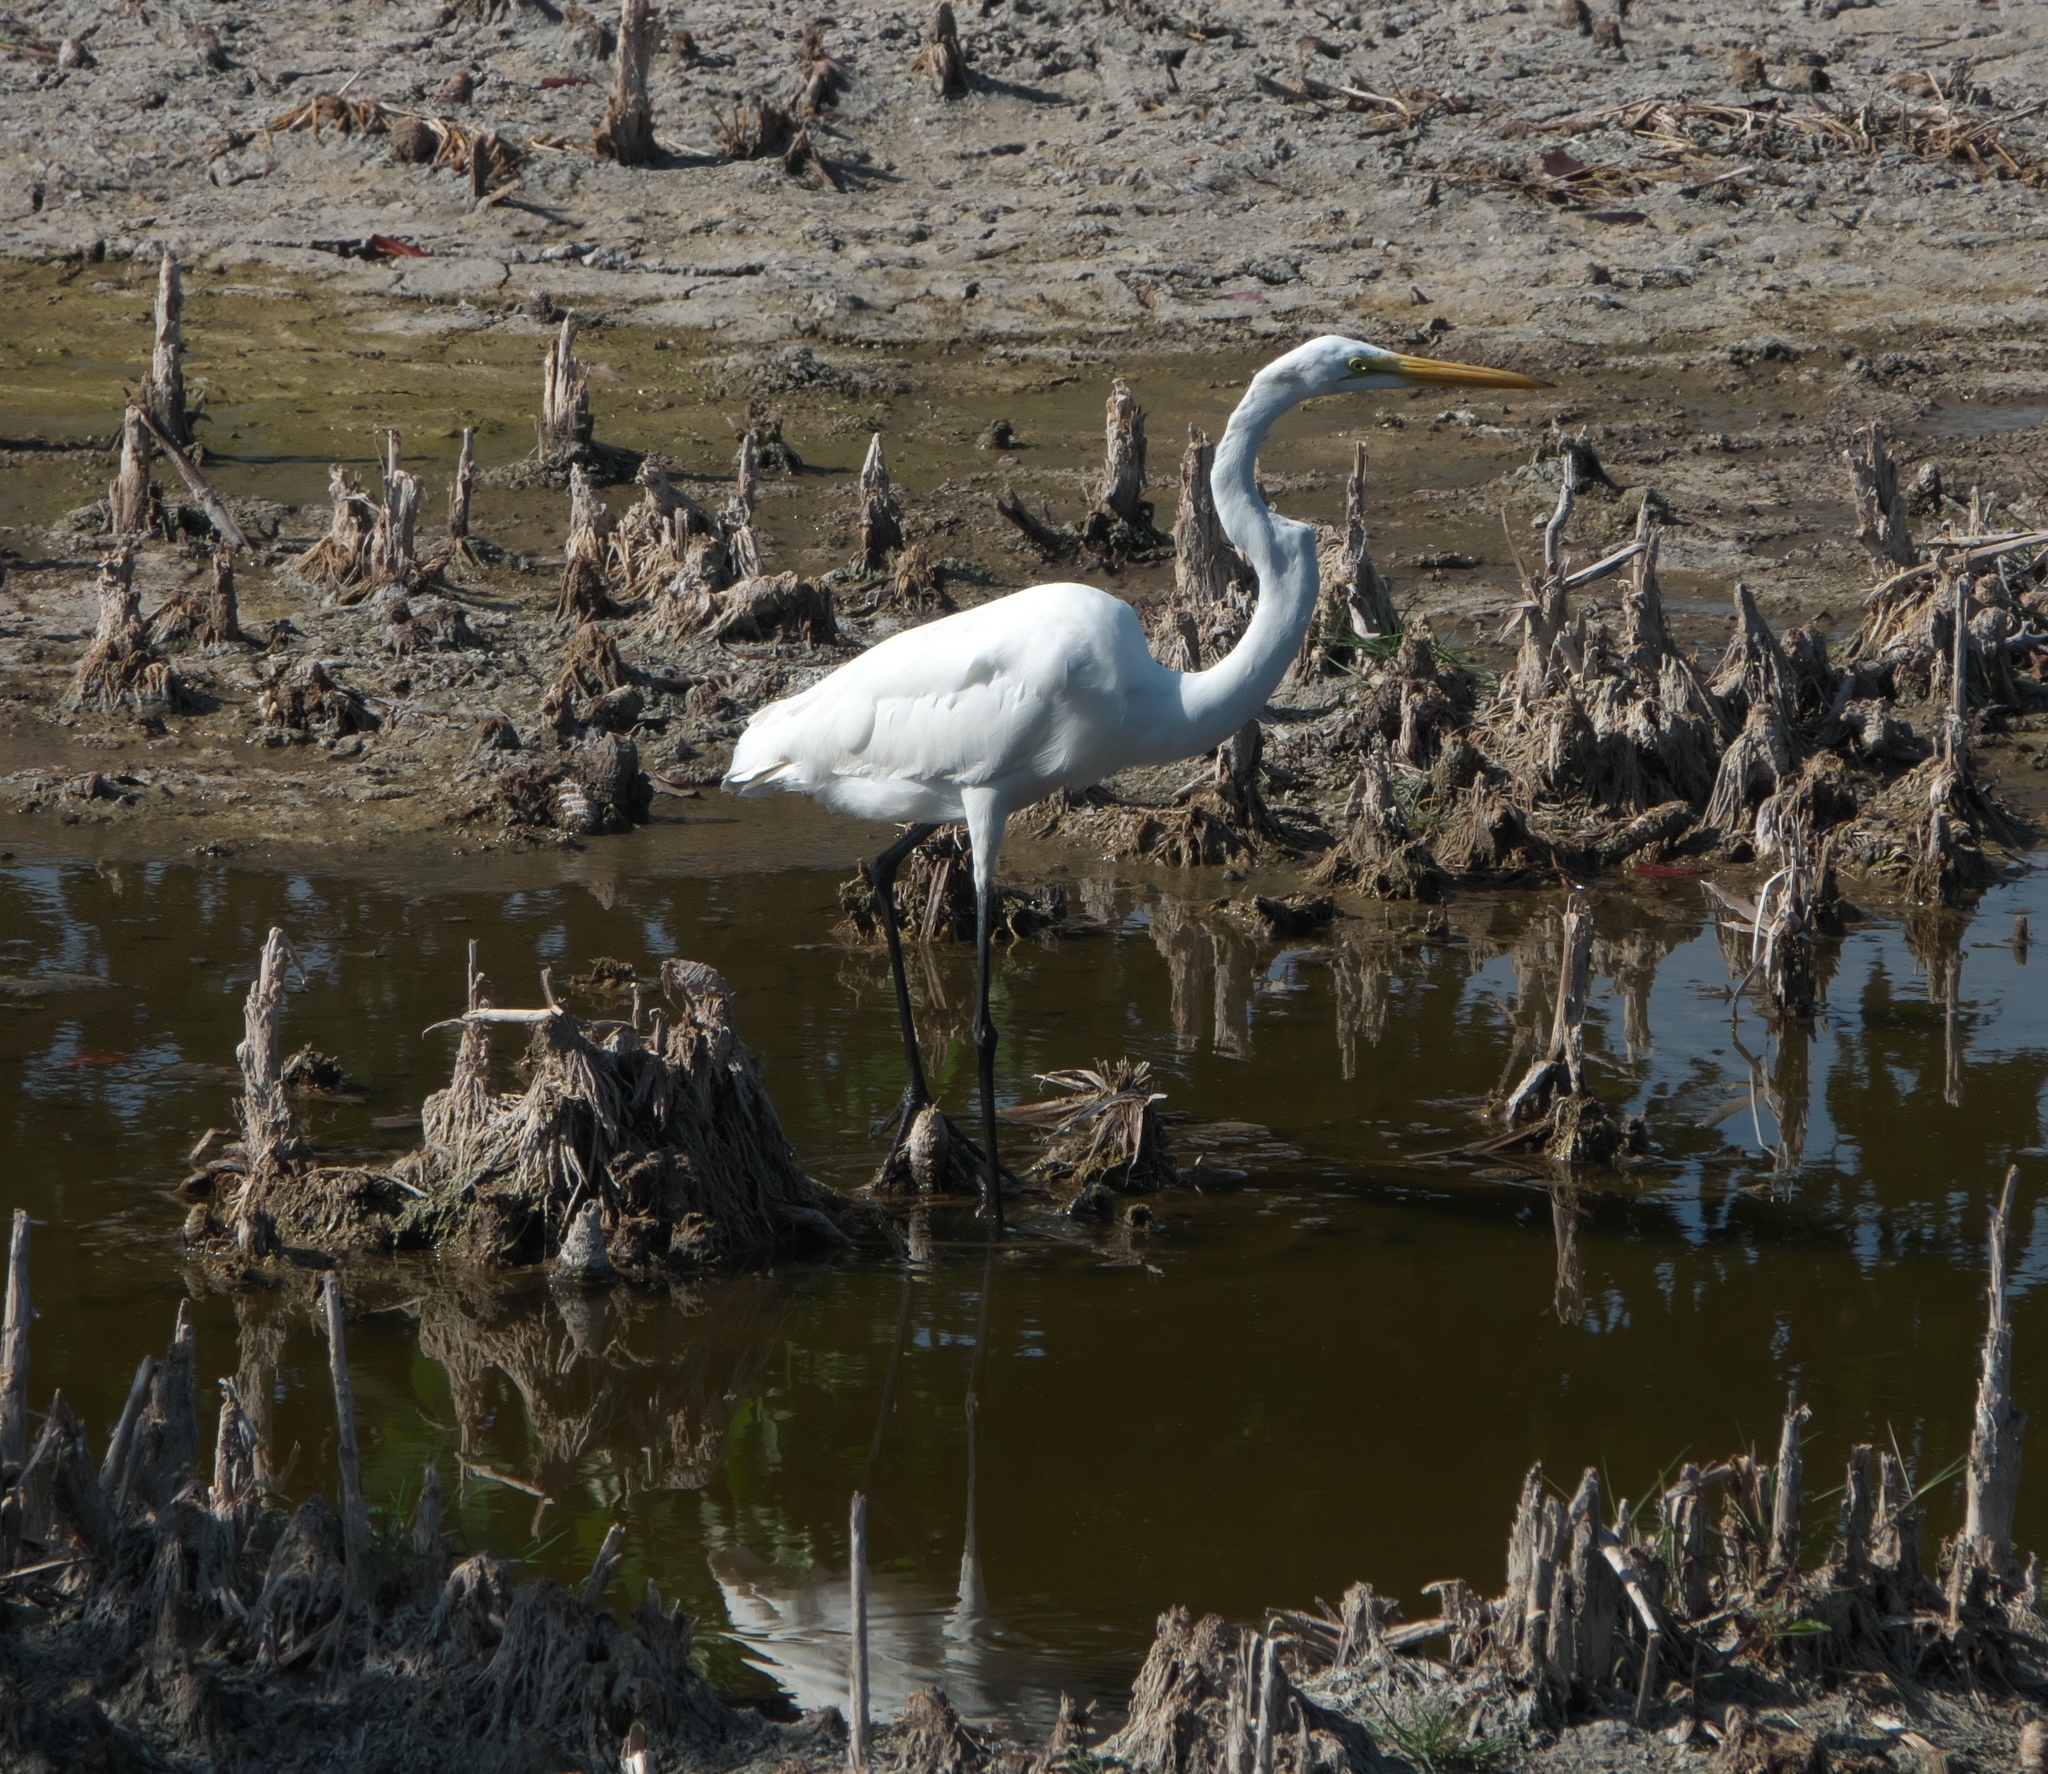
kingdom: Animalia
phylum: Chordata
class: Aves
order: Pelecaniformes
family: Ardeidae
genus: Ardea
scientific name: Ardea alba
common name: Great egret
